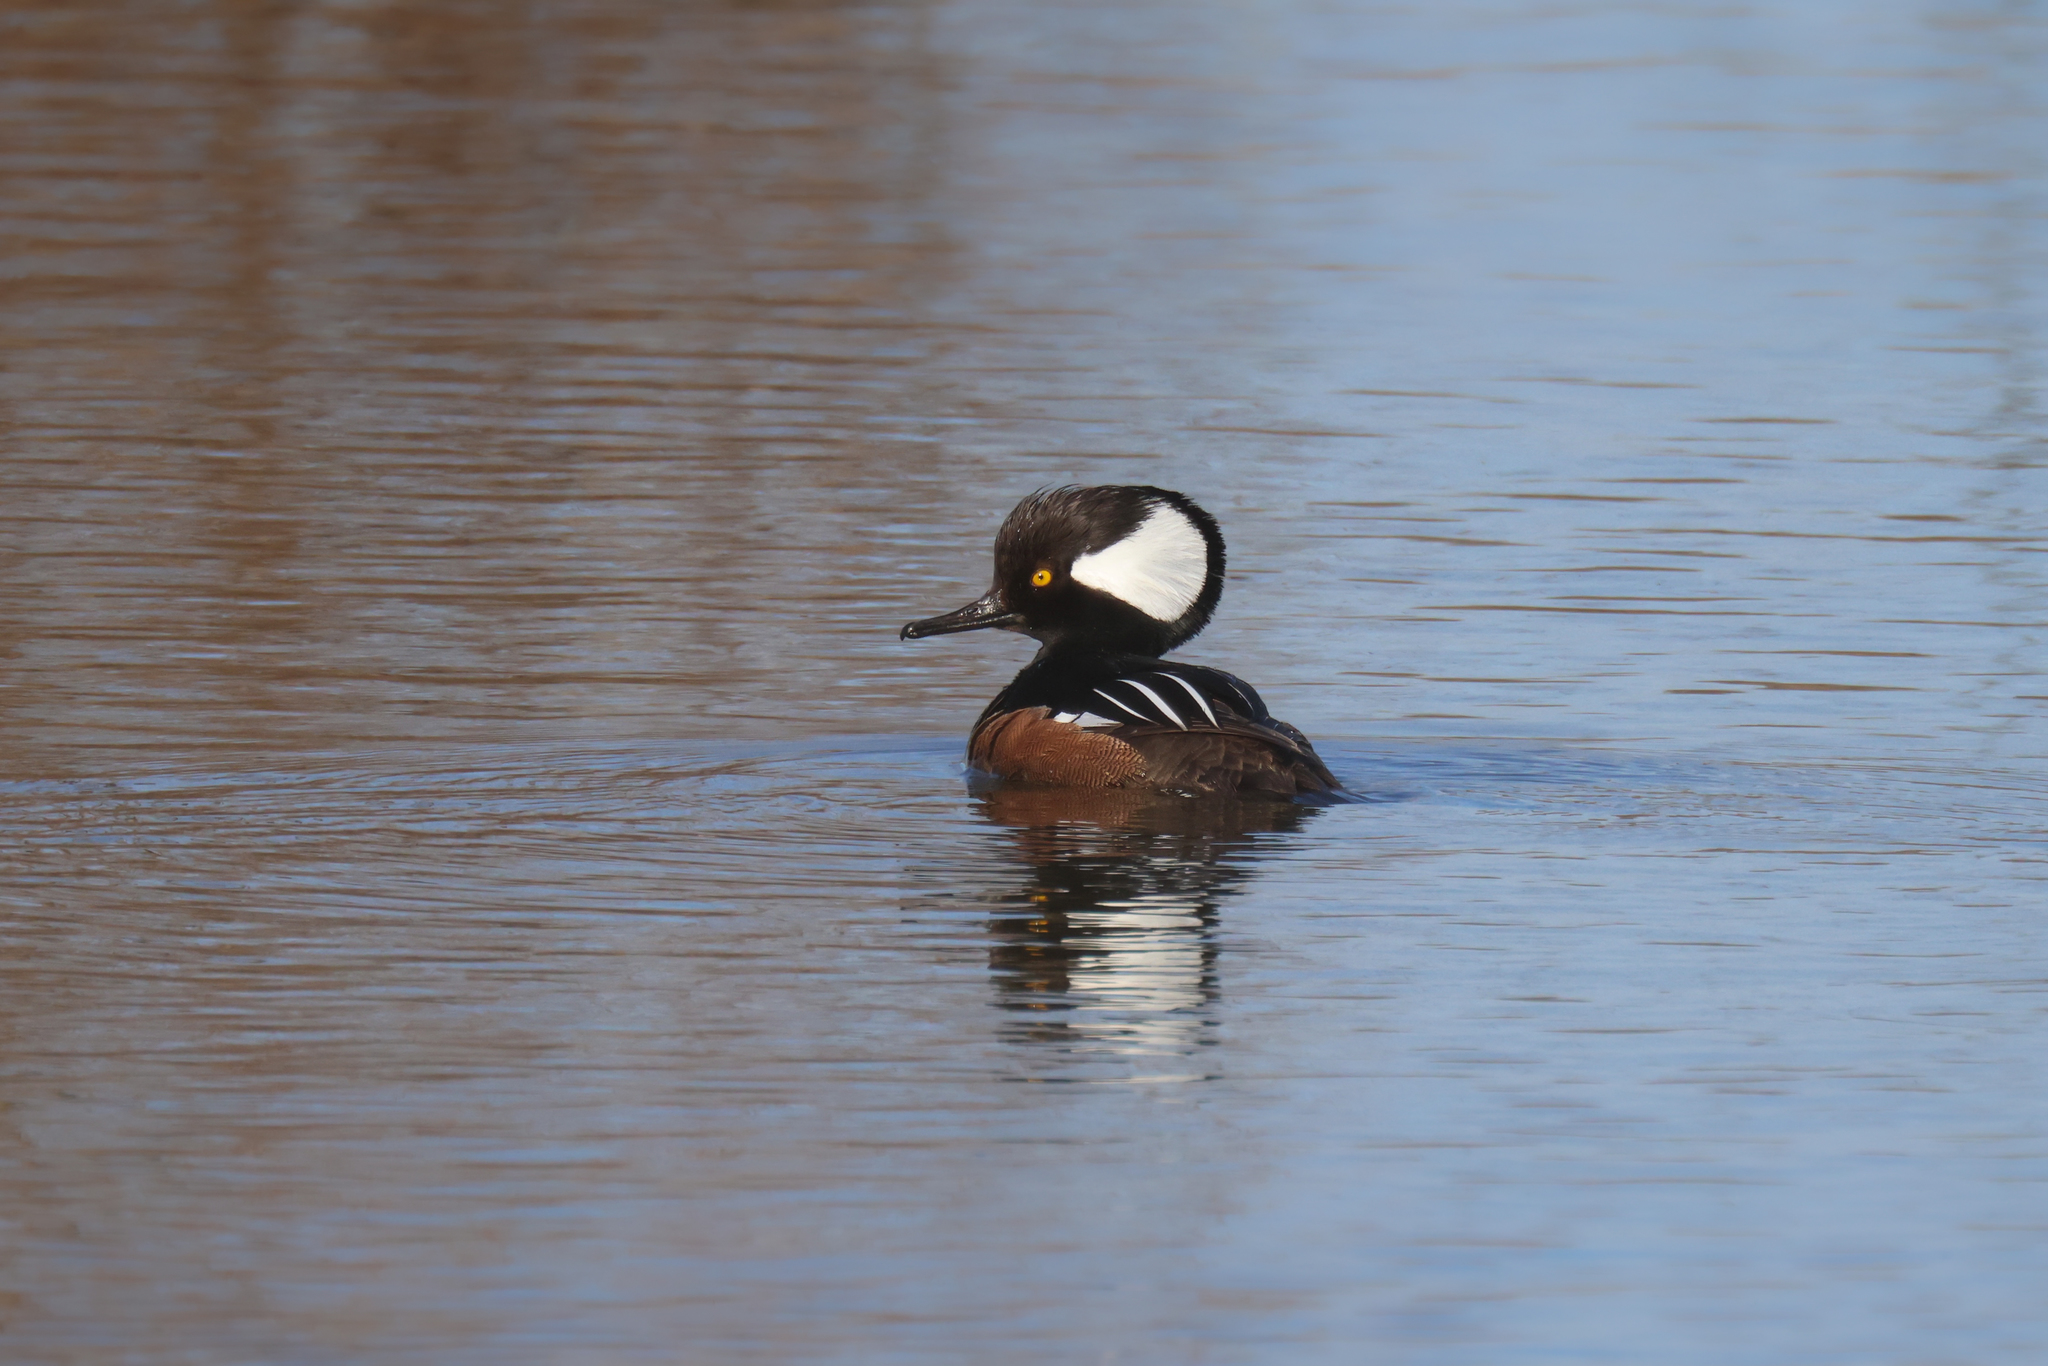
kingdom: Animalia
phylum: Chordata
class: Aves
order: Anseriformes
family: Anatidae
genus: Lophodytes
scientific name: Lophodytes cucullatus
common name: Hooded merganser
